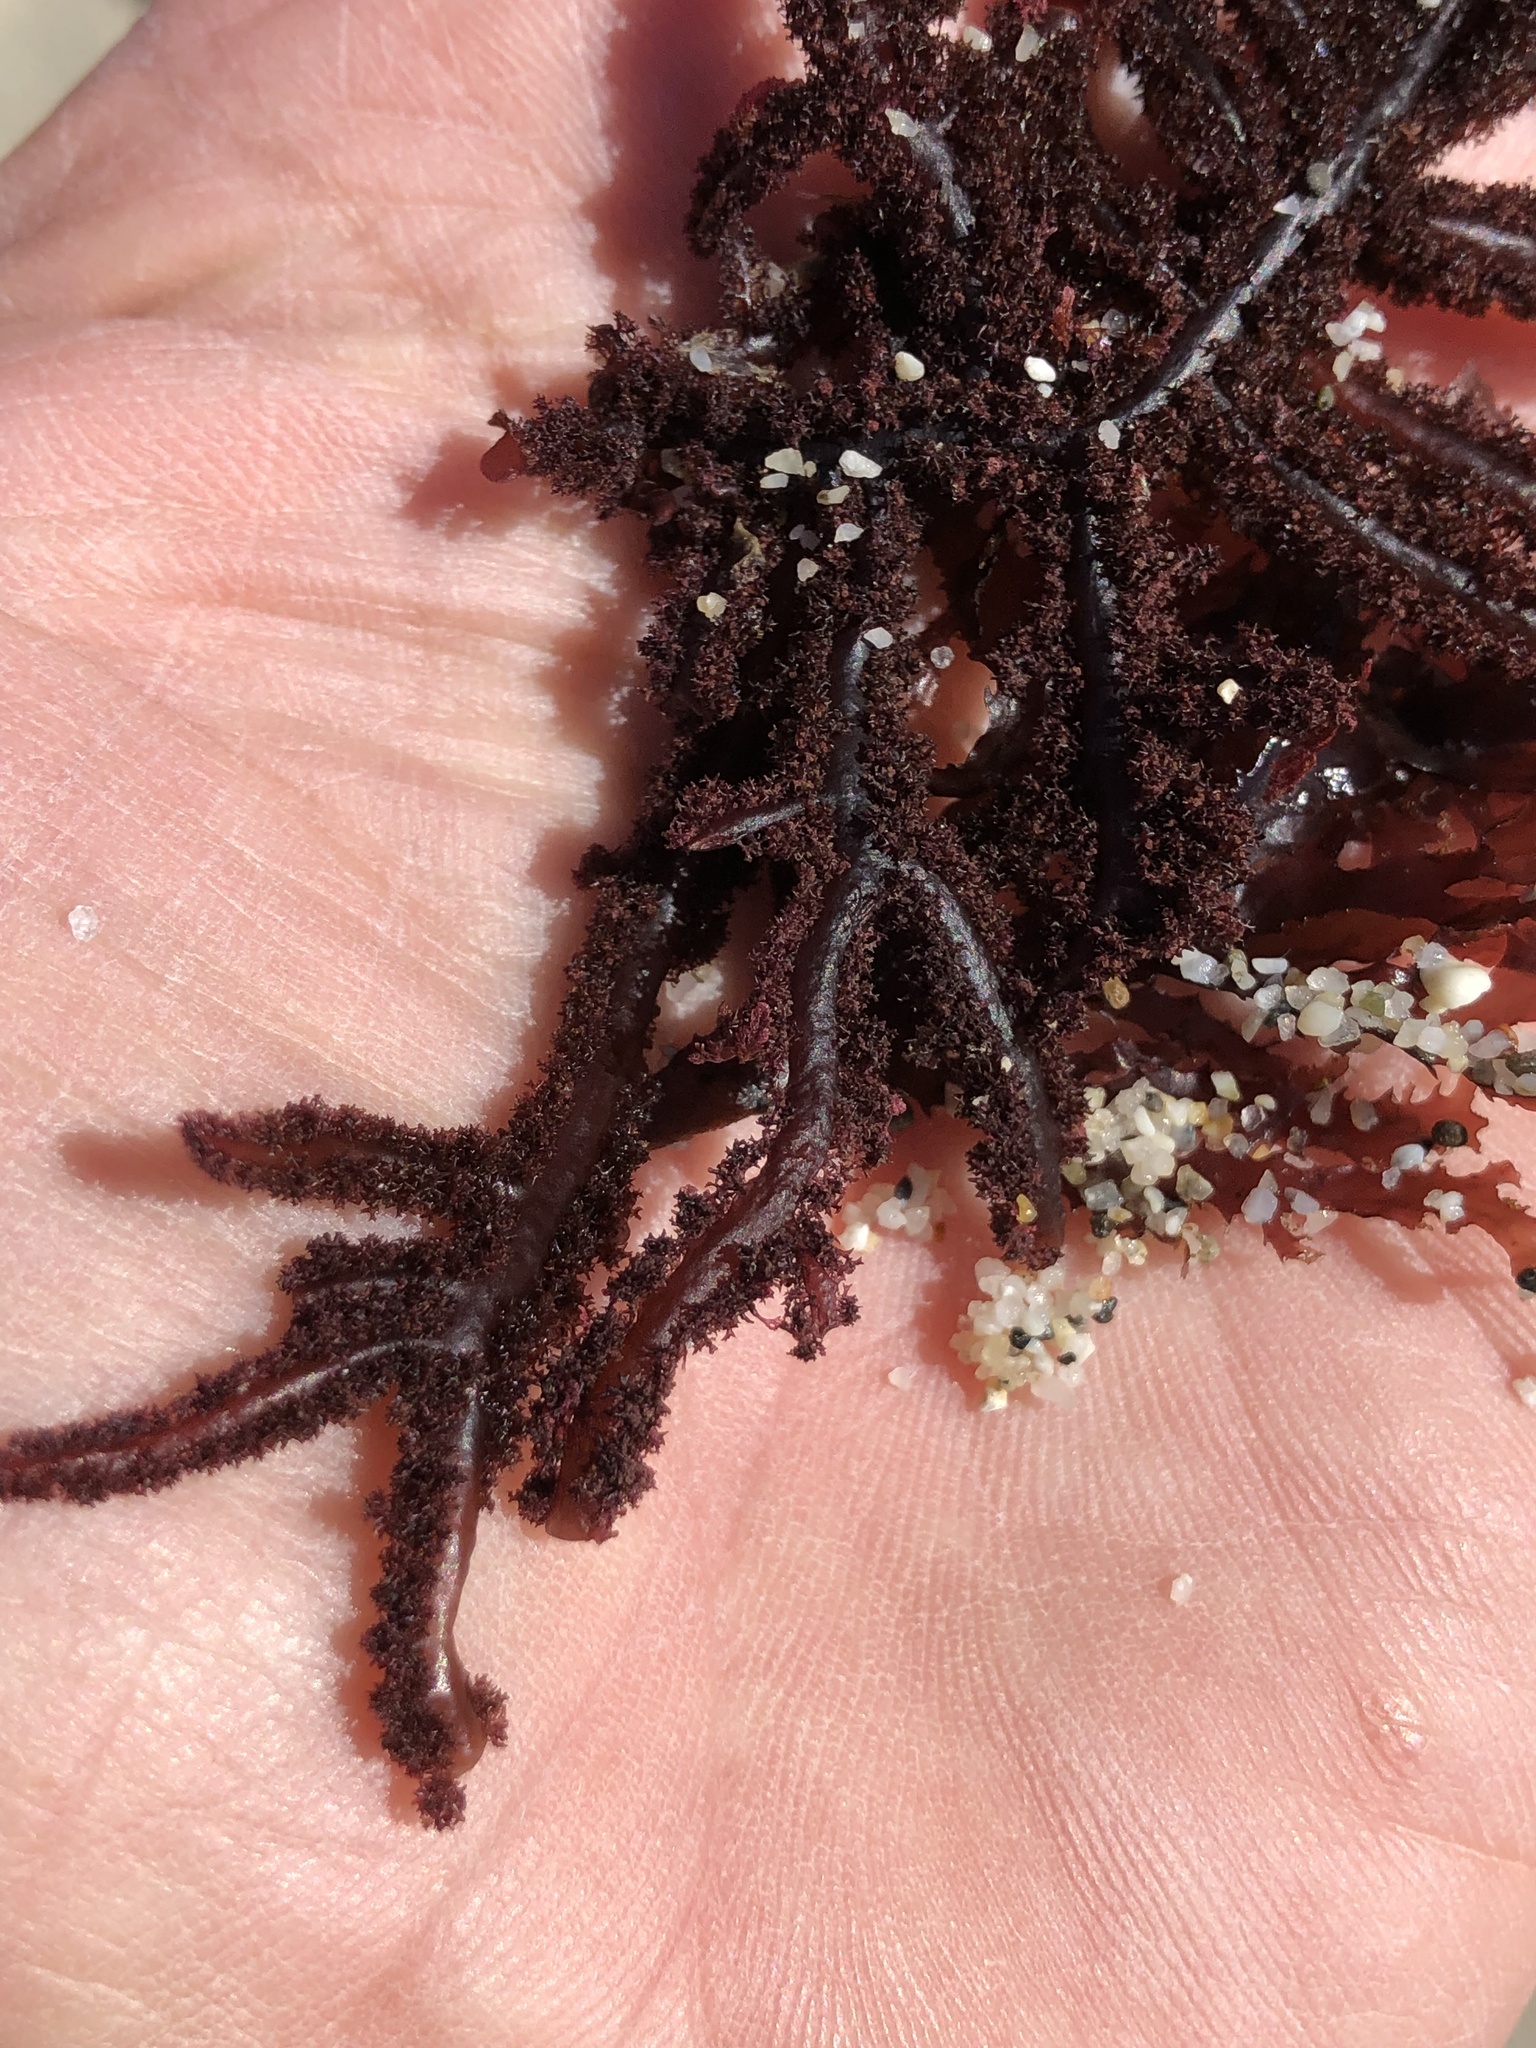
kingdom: Plantae
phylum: Rhodophyta
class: Florideophyceae
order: Ceramiales
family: Wrangeliaceae
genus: Neoptilota
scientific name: Neoptilota densa
